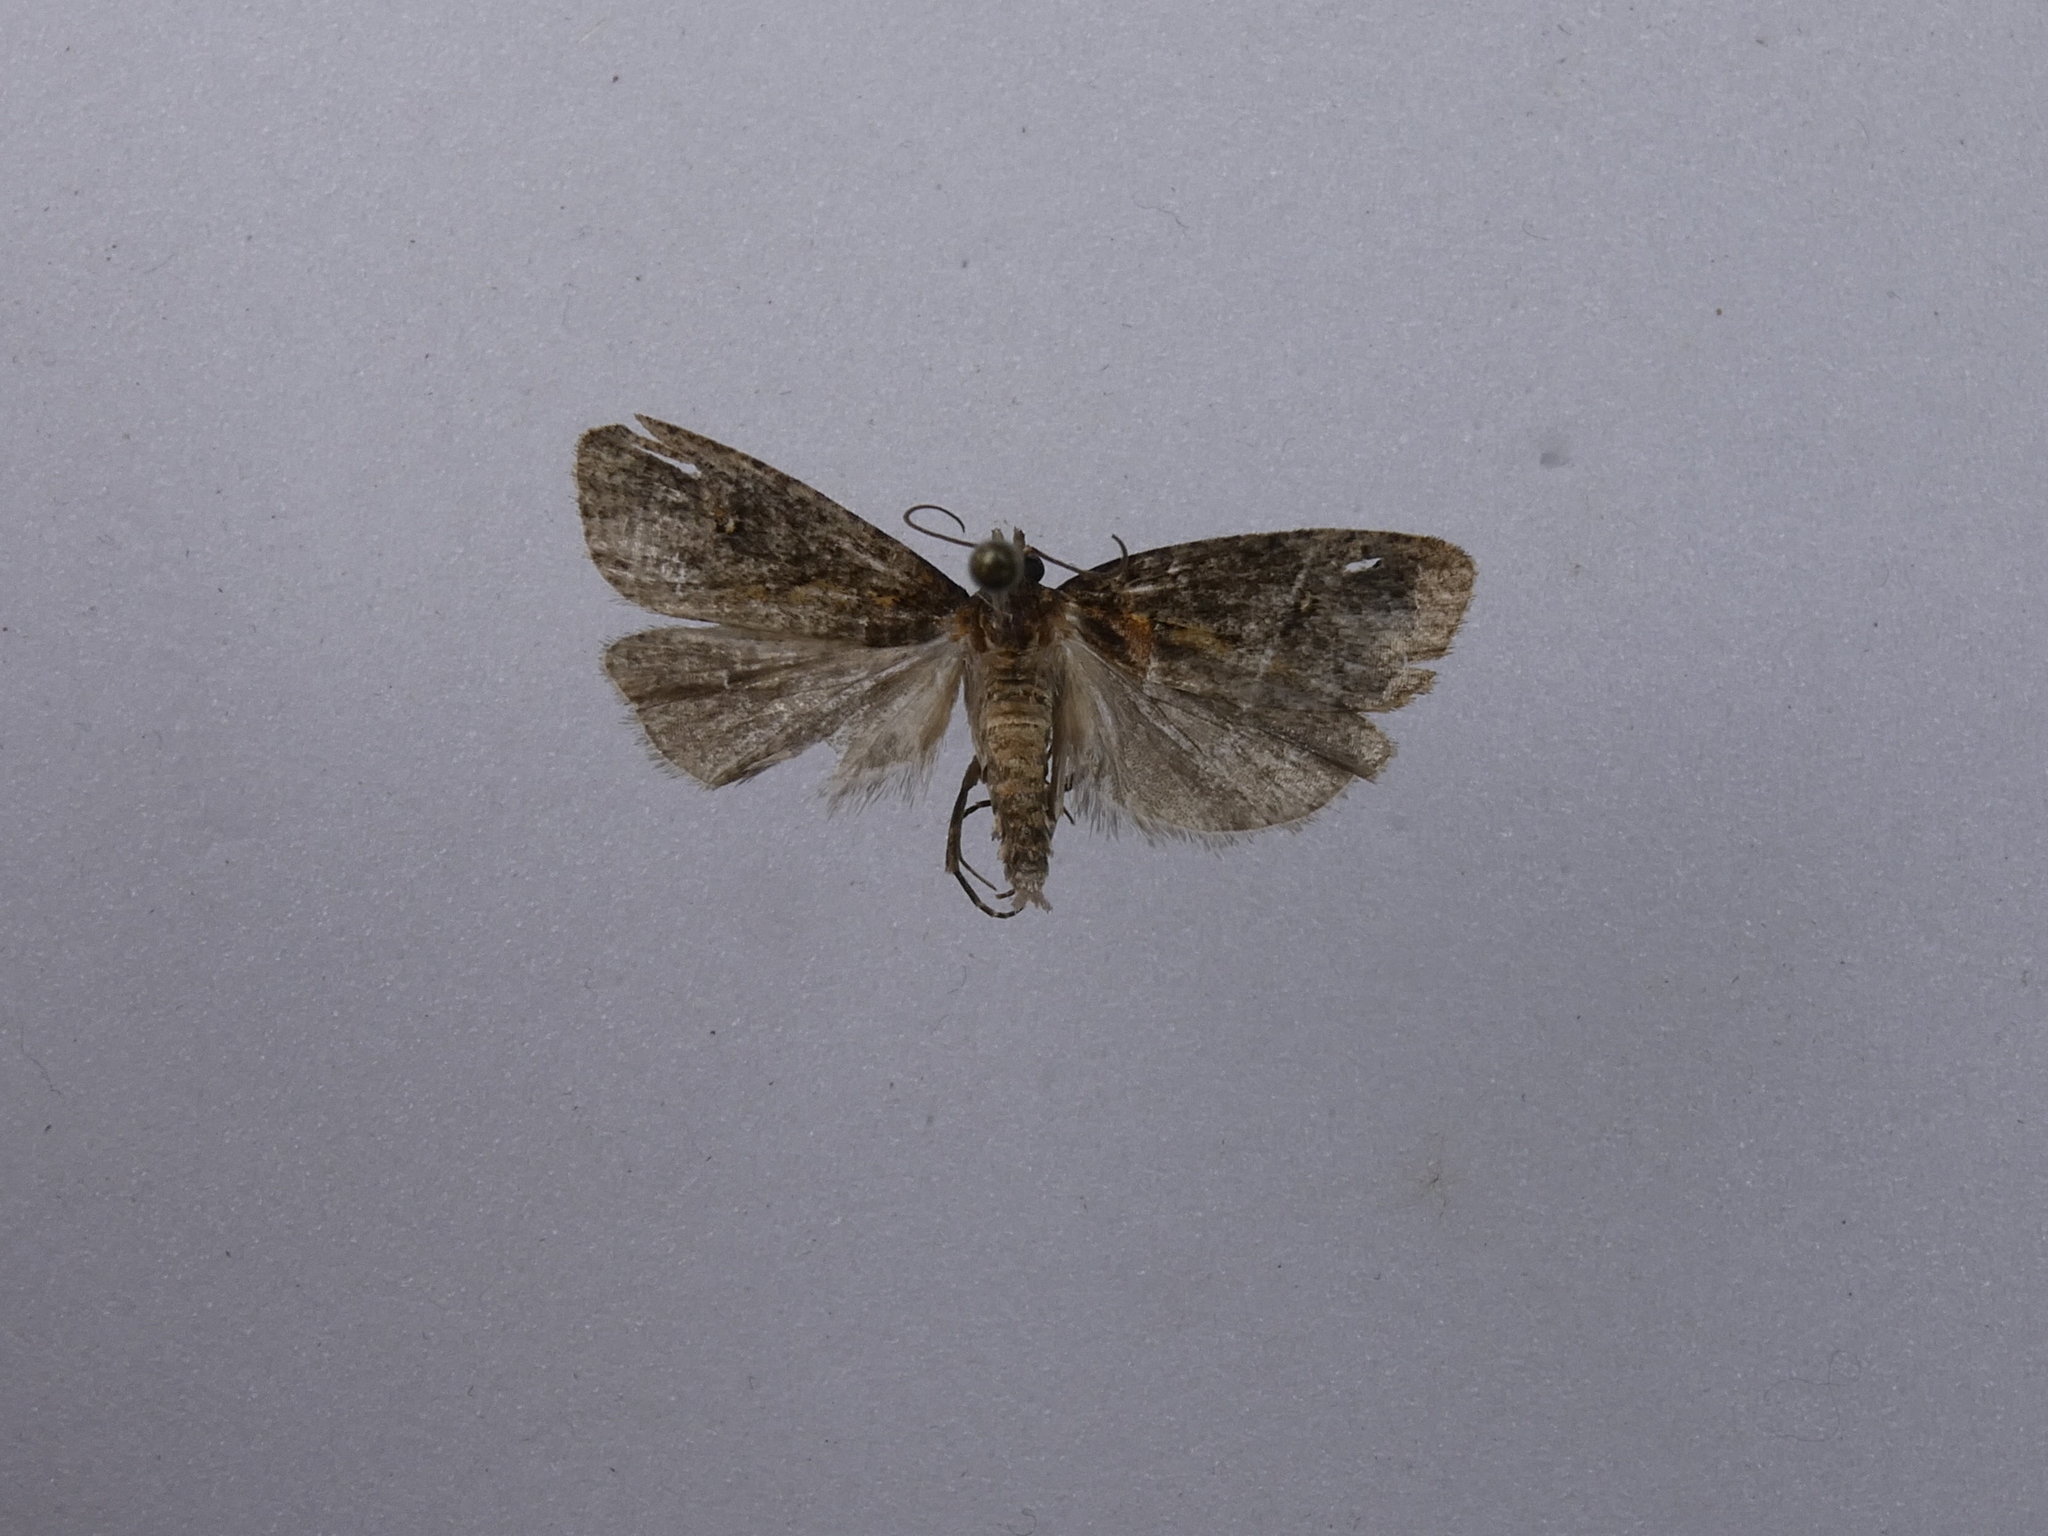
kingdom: Animalia
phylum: Arthropoda
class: Insecta
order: Lepidoptera
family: Tortricidae
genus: Cryptaspasma
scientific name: Cryptaspasma querula
